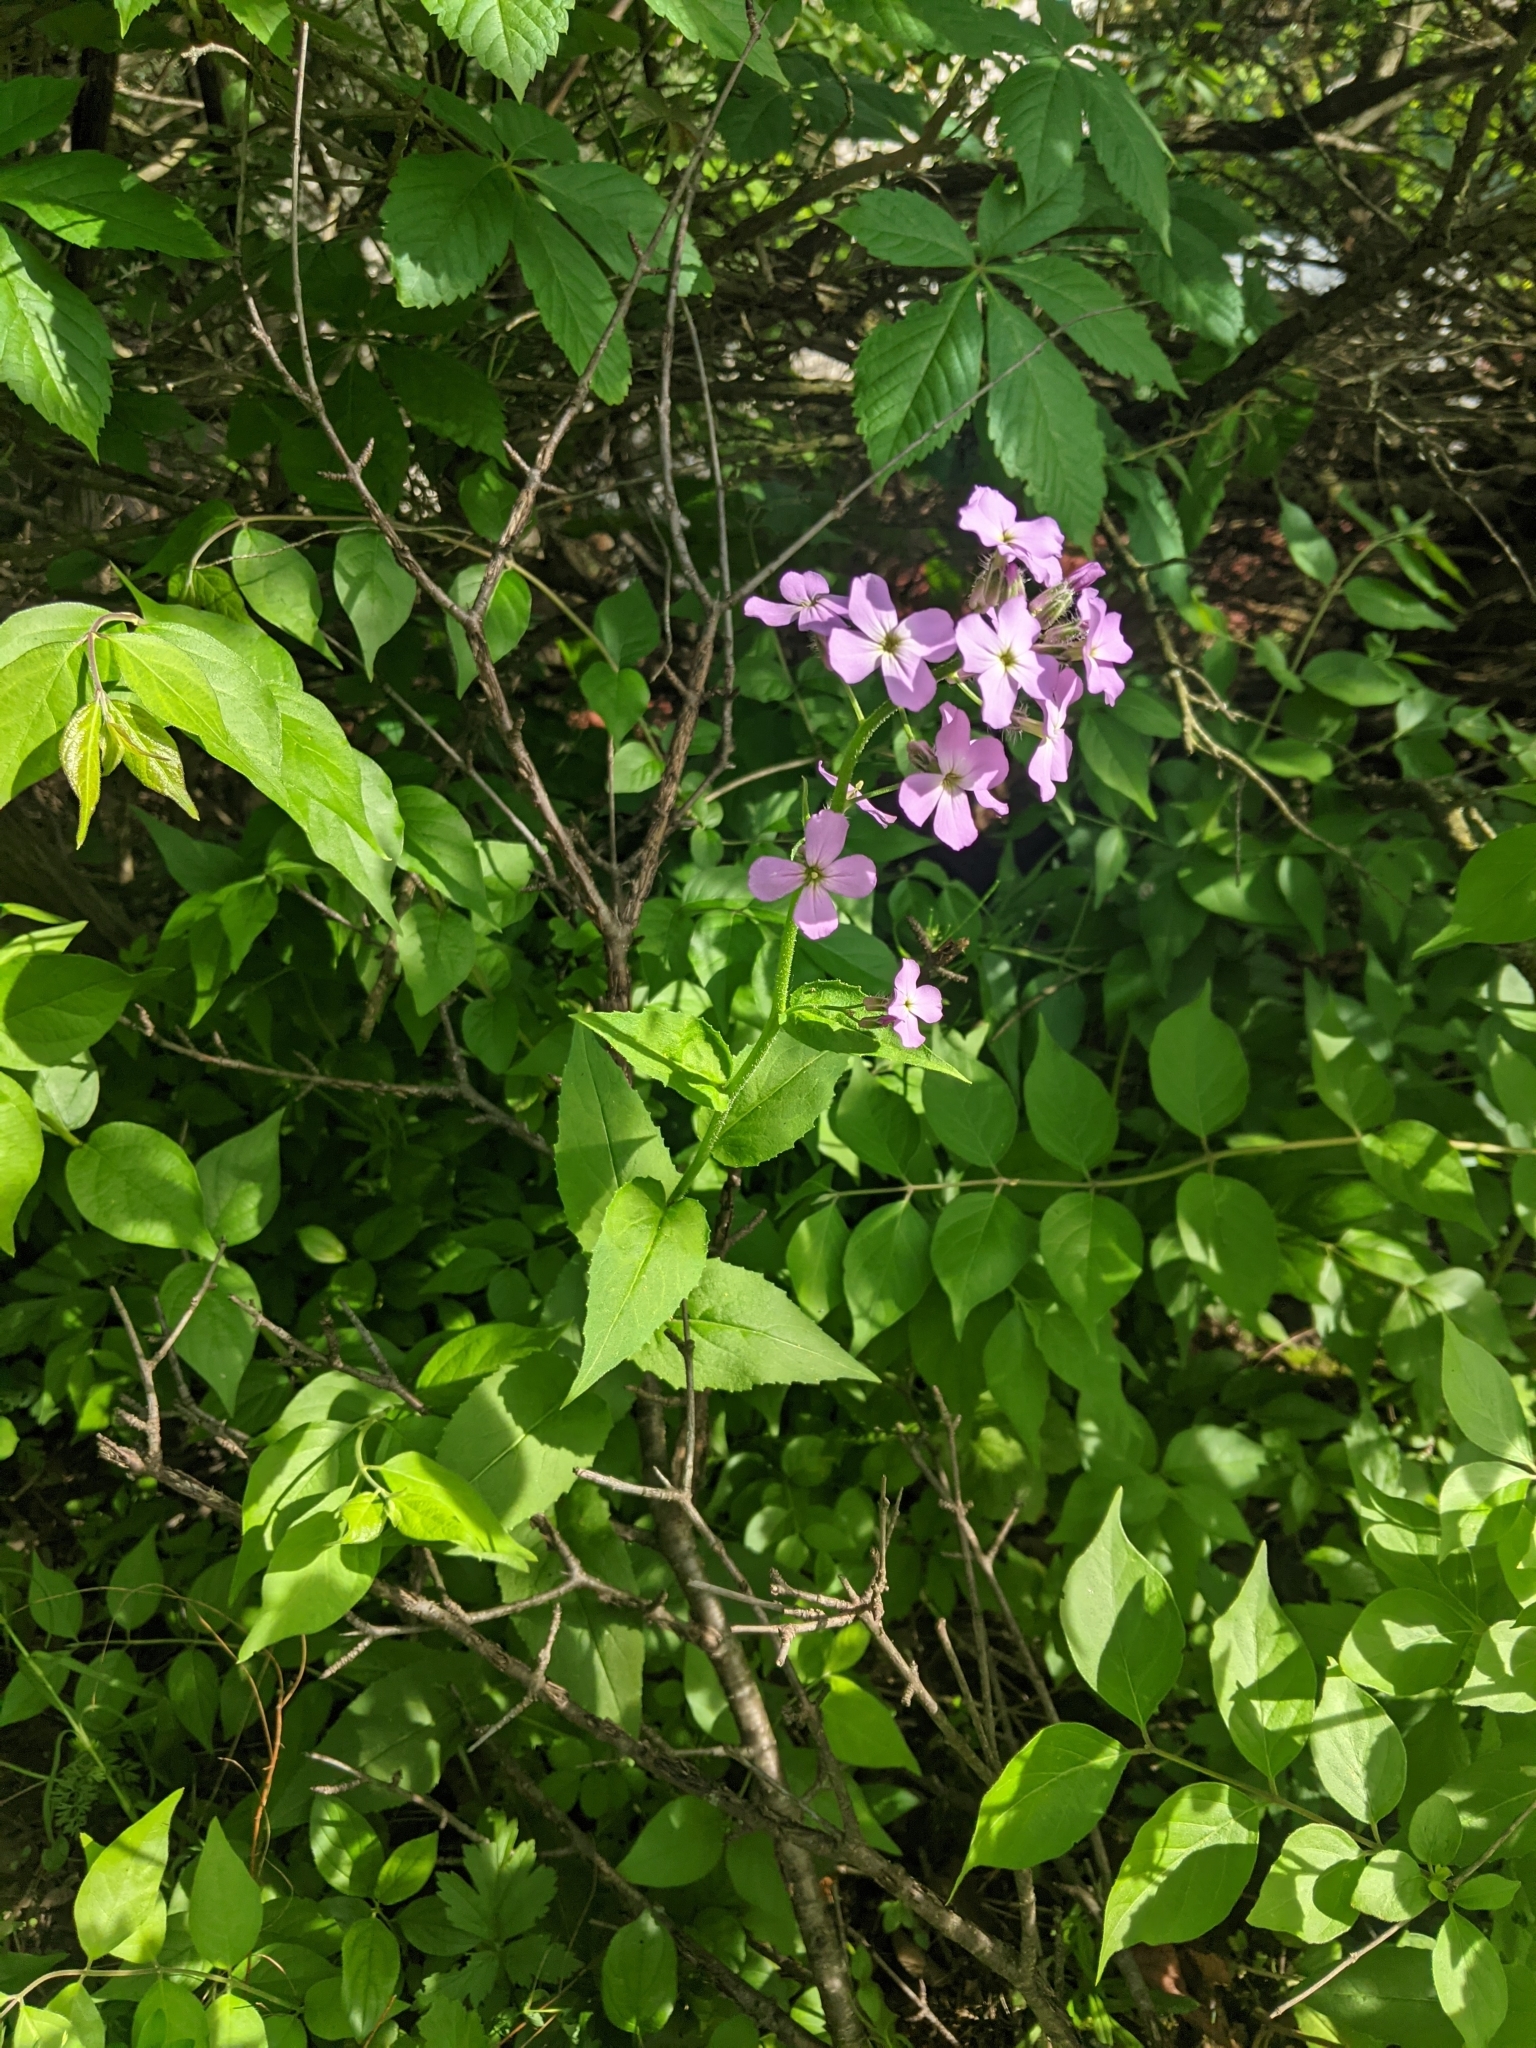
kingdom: Plantae
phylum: Tracheophyta
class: Magnoliopsida
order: Brassicales
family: Brassicaceae
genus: Hesperis
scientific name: Hesperis matronalis
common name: Dame's-violet
